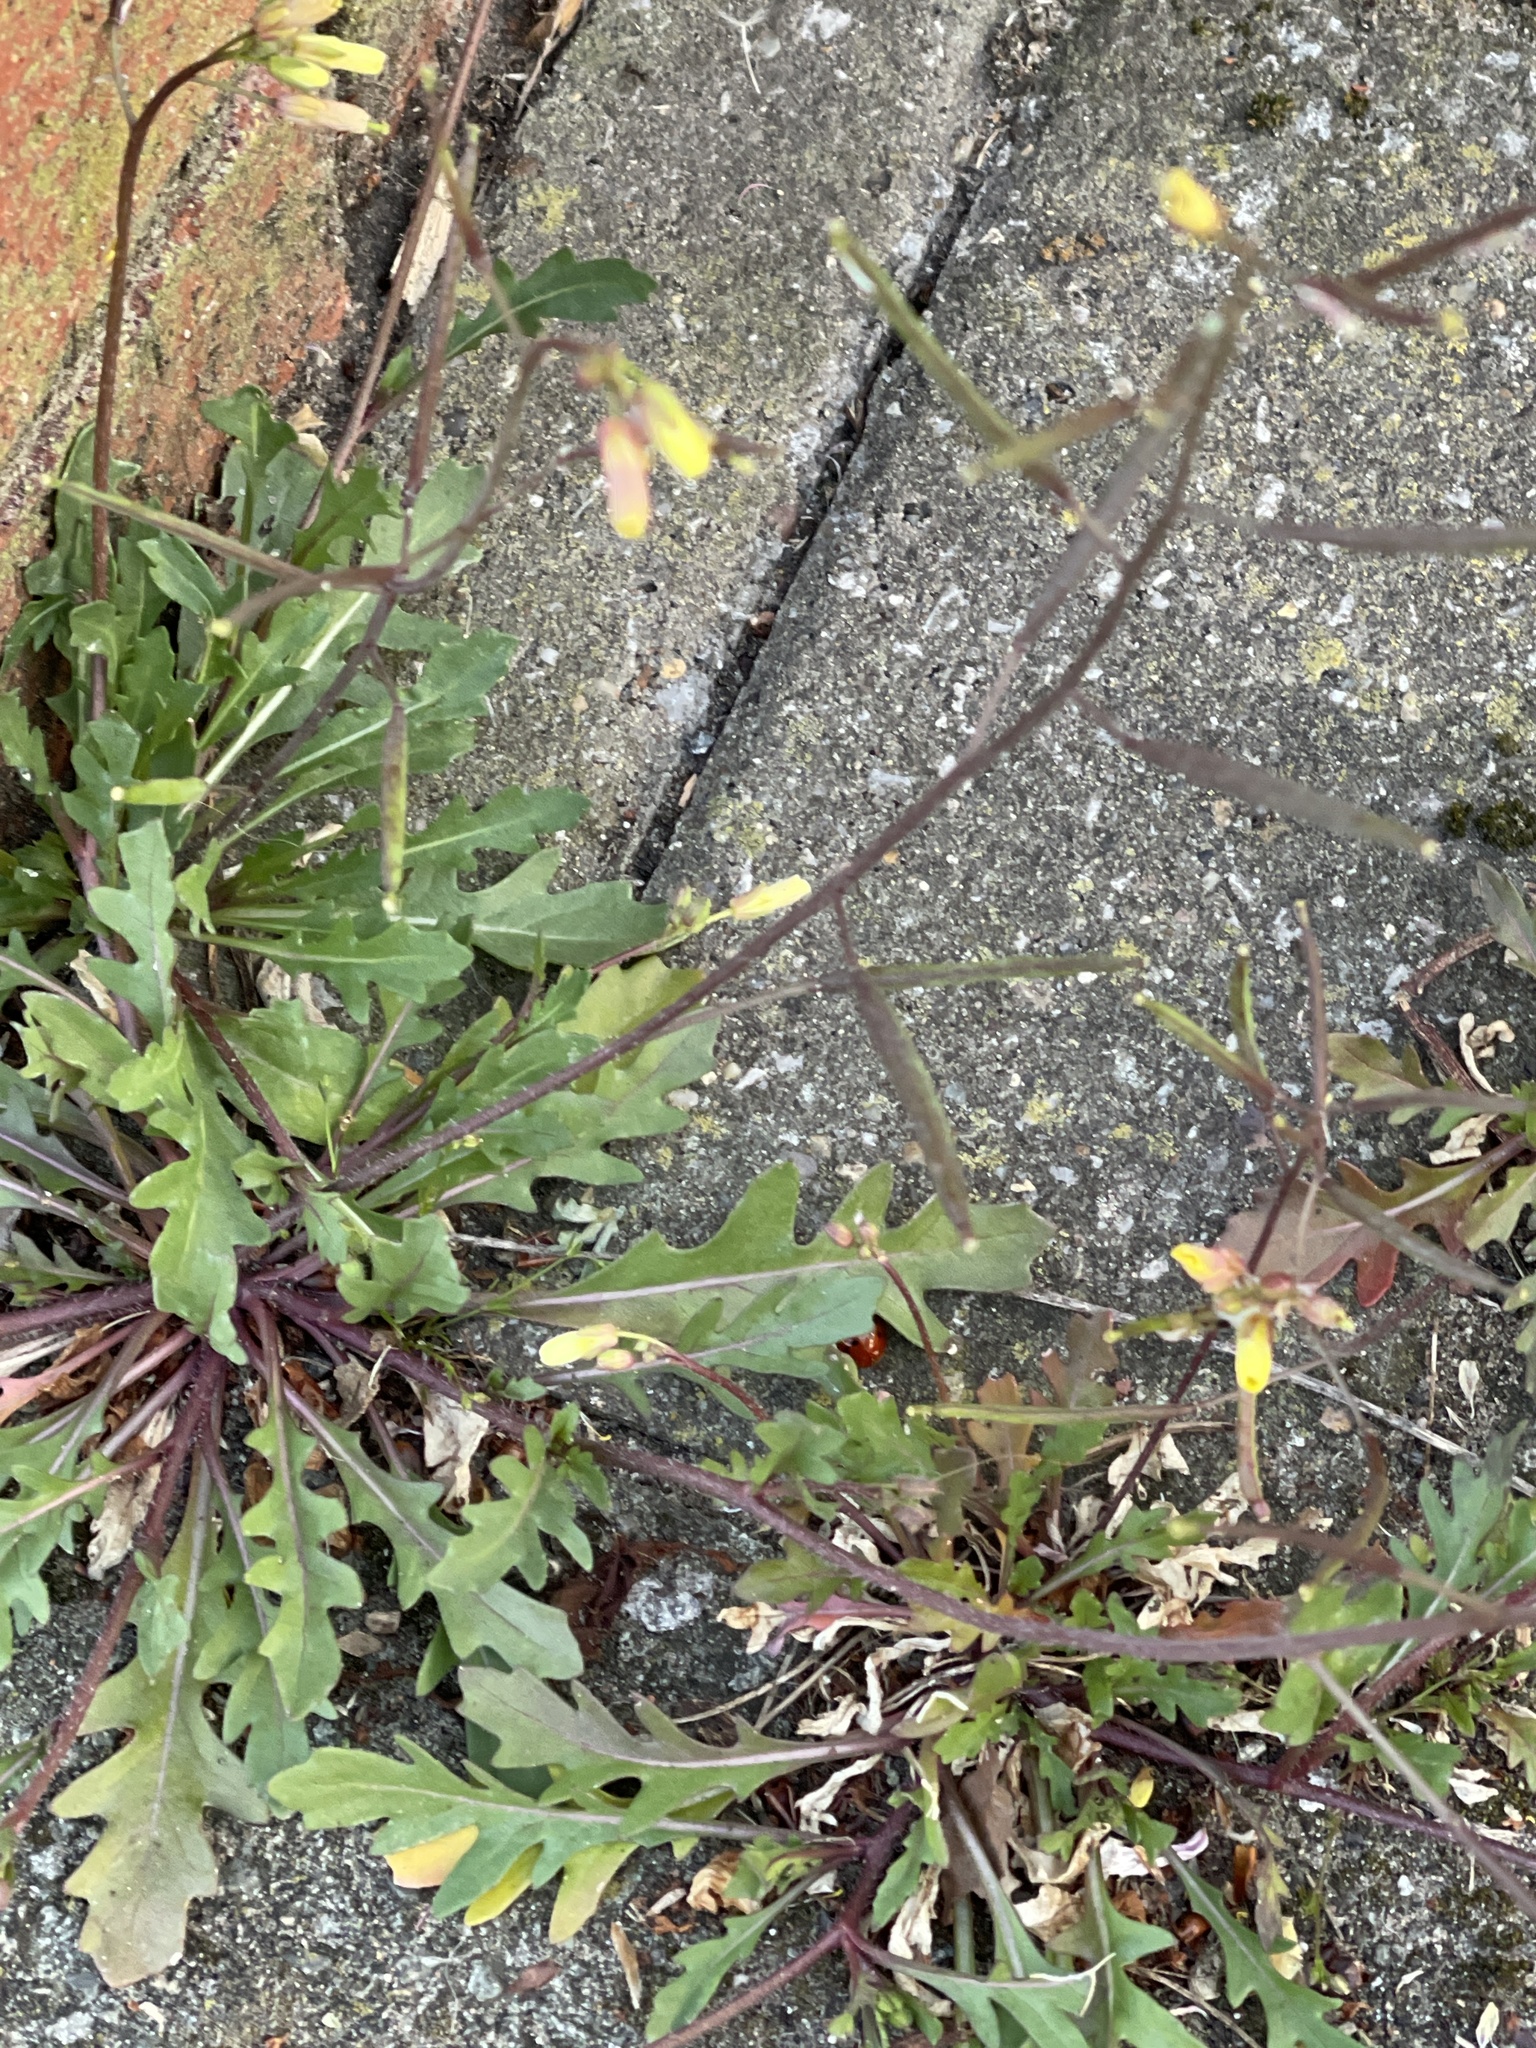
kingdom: Plantae
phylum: Tracheophyta
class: Magnoliopsida
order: Brassicales
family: Brassicaceae
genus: Diplotaxis
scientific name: Diplotaxis muralis
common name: Annual wall-rocket
